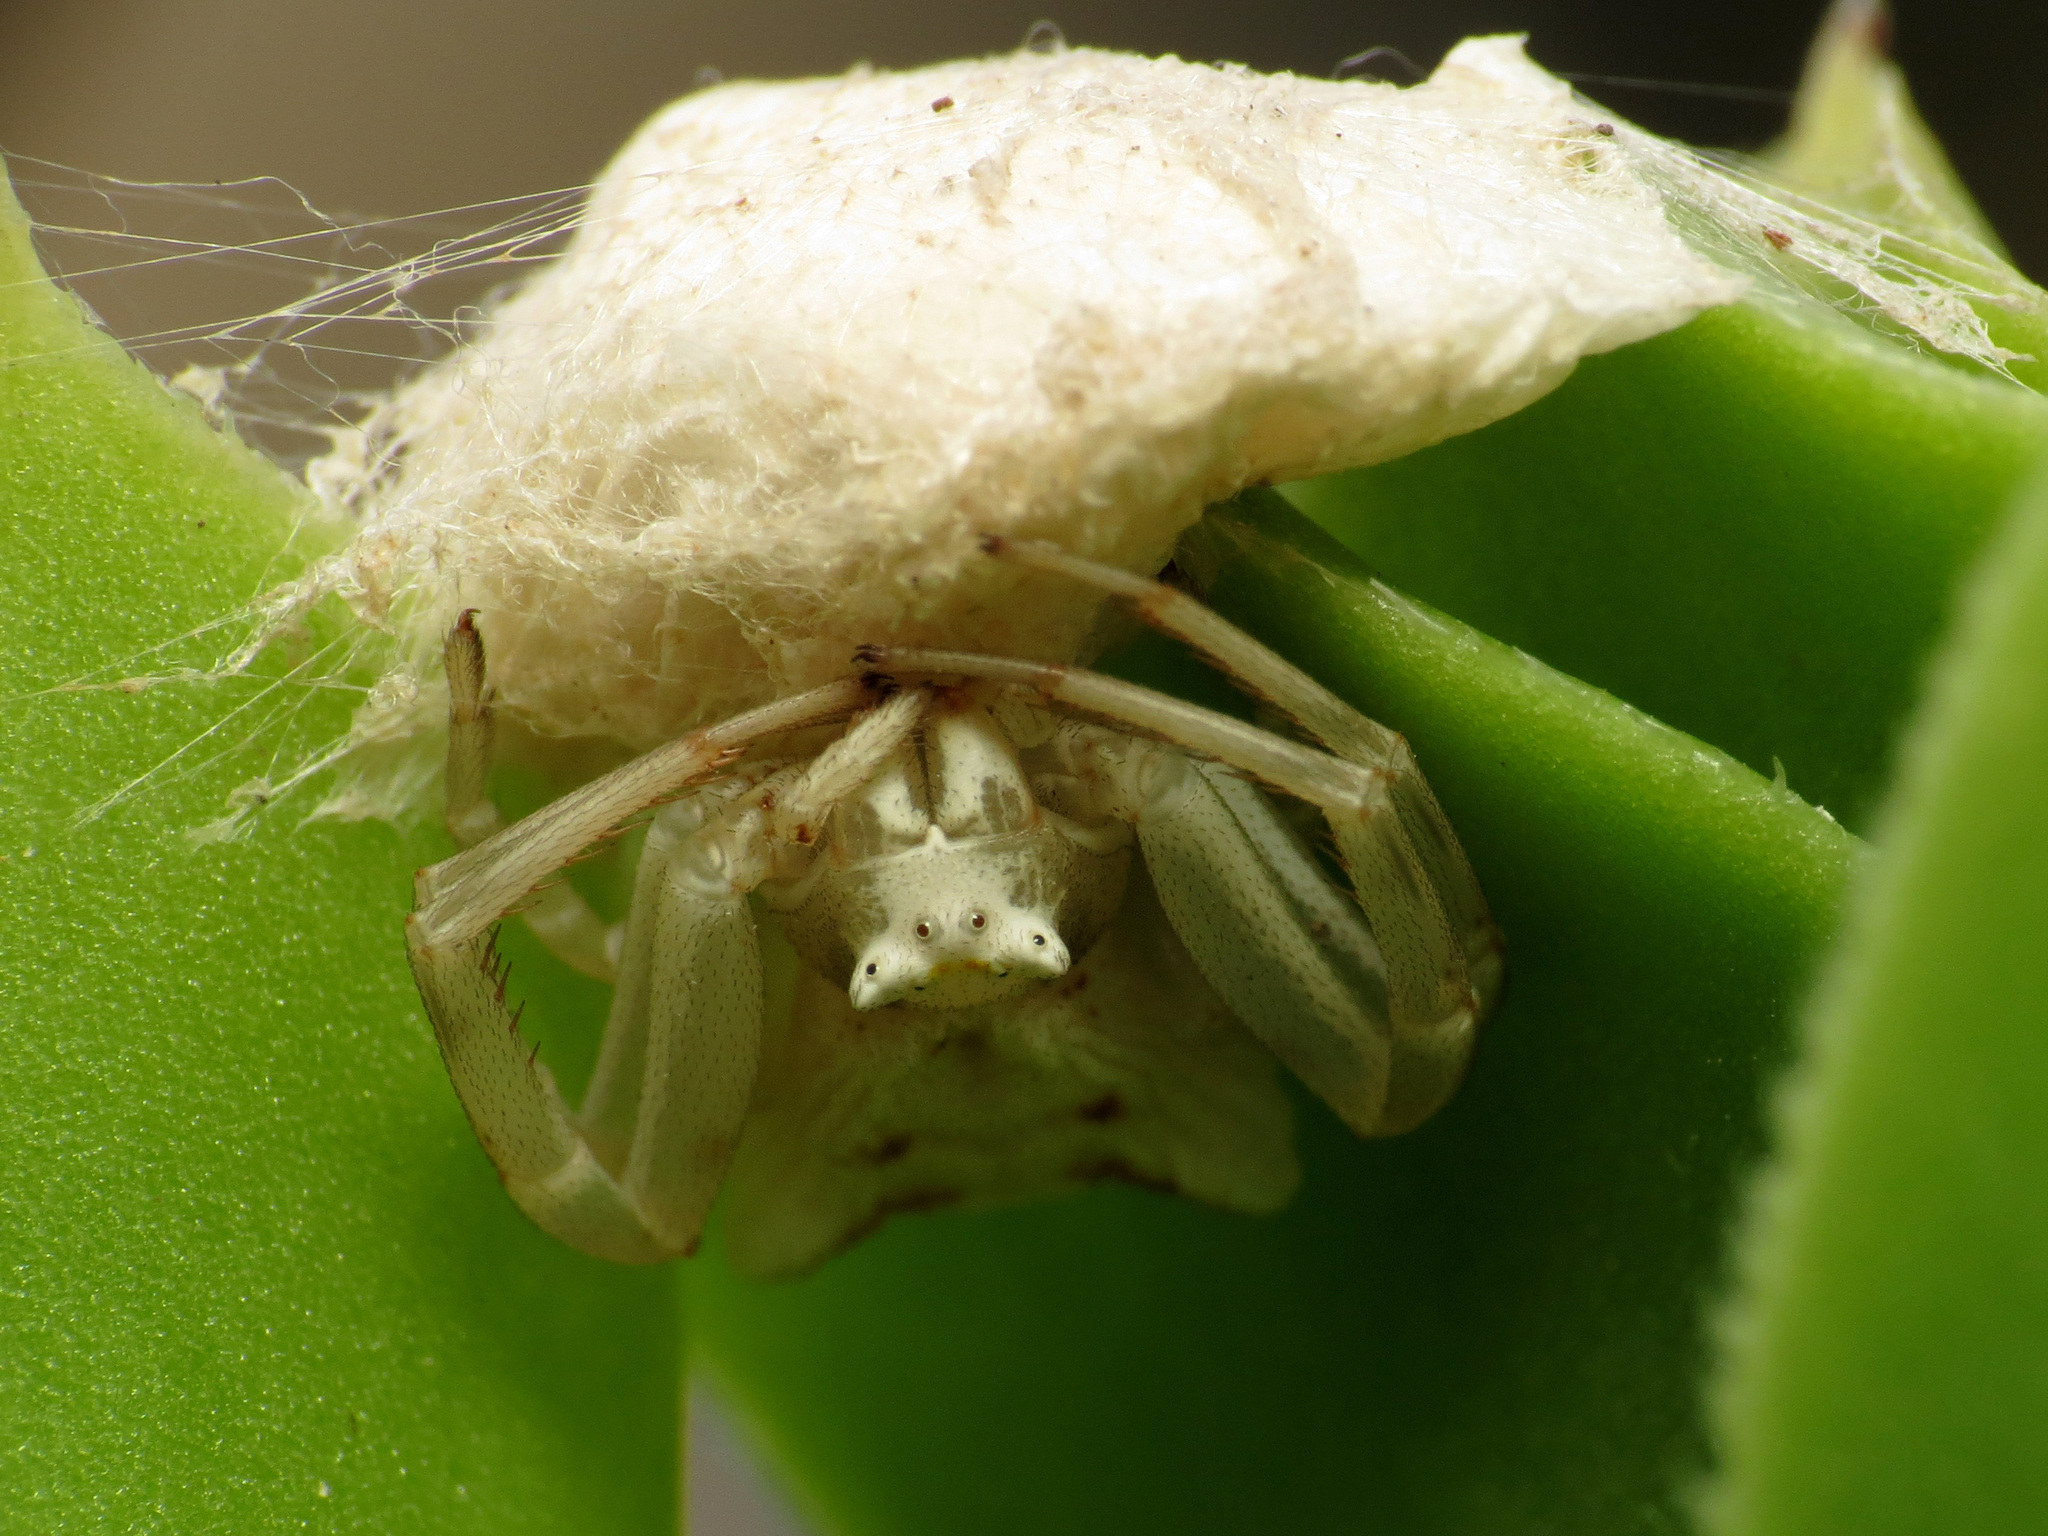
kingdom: Animalia
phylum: Arthropoda
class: Arachnida
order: Araneae
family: Thomisidae
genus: Thomisus
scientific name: Thomisus onustus
